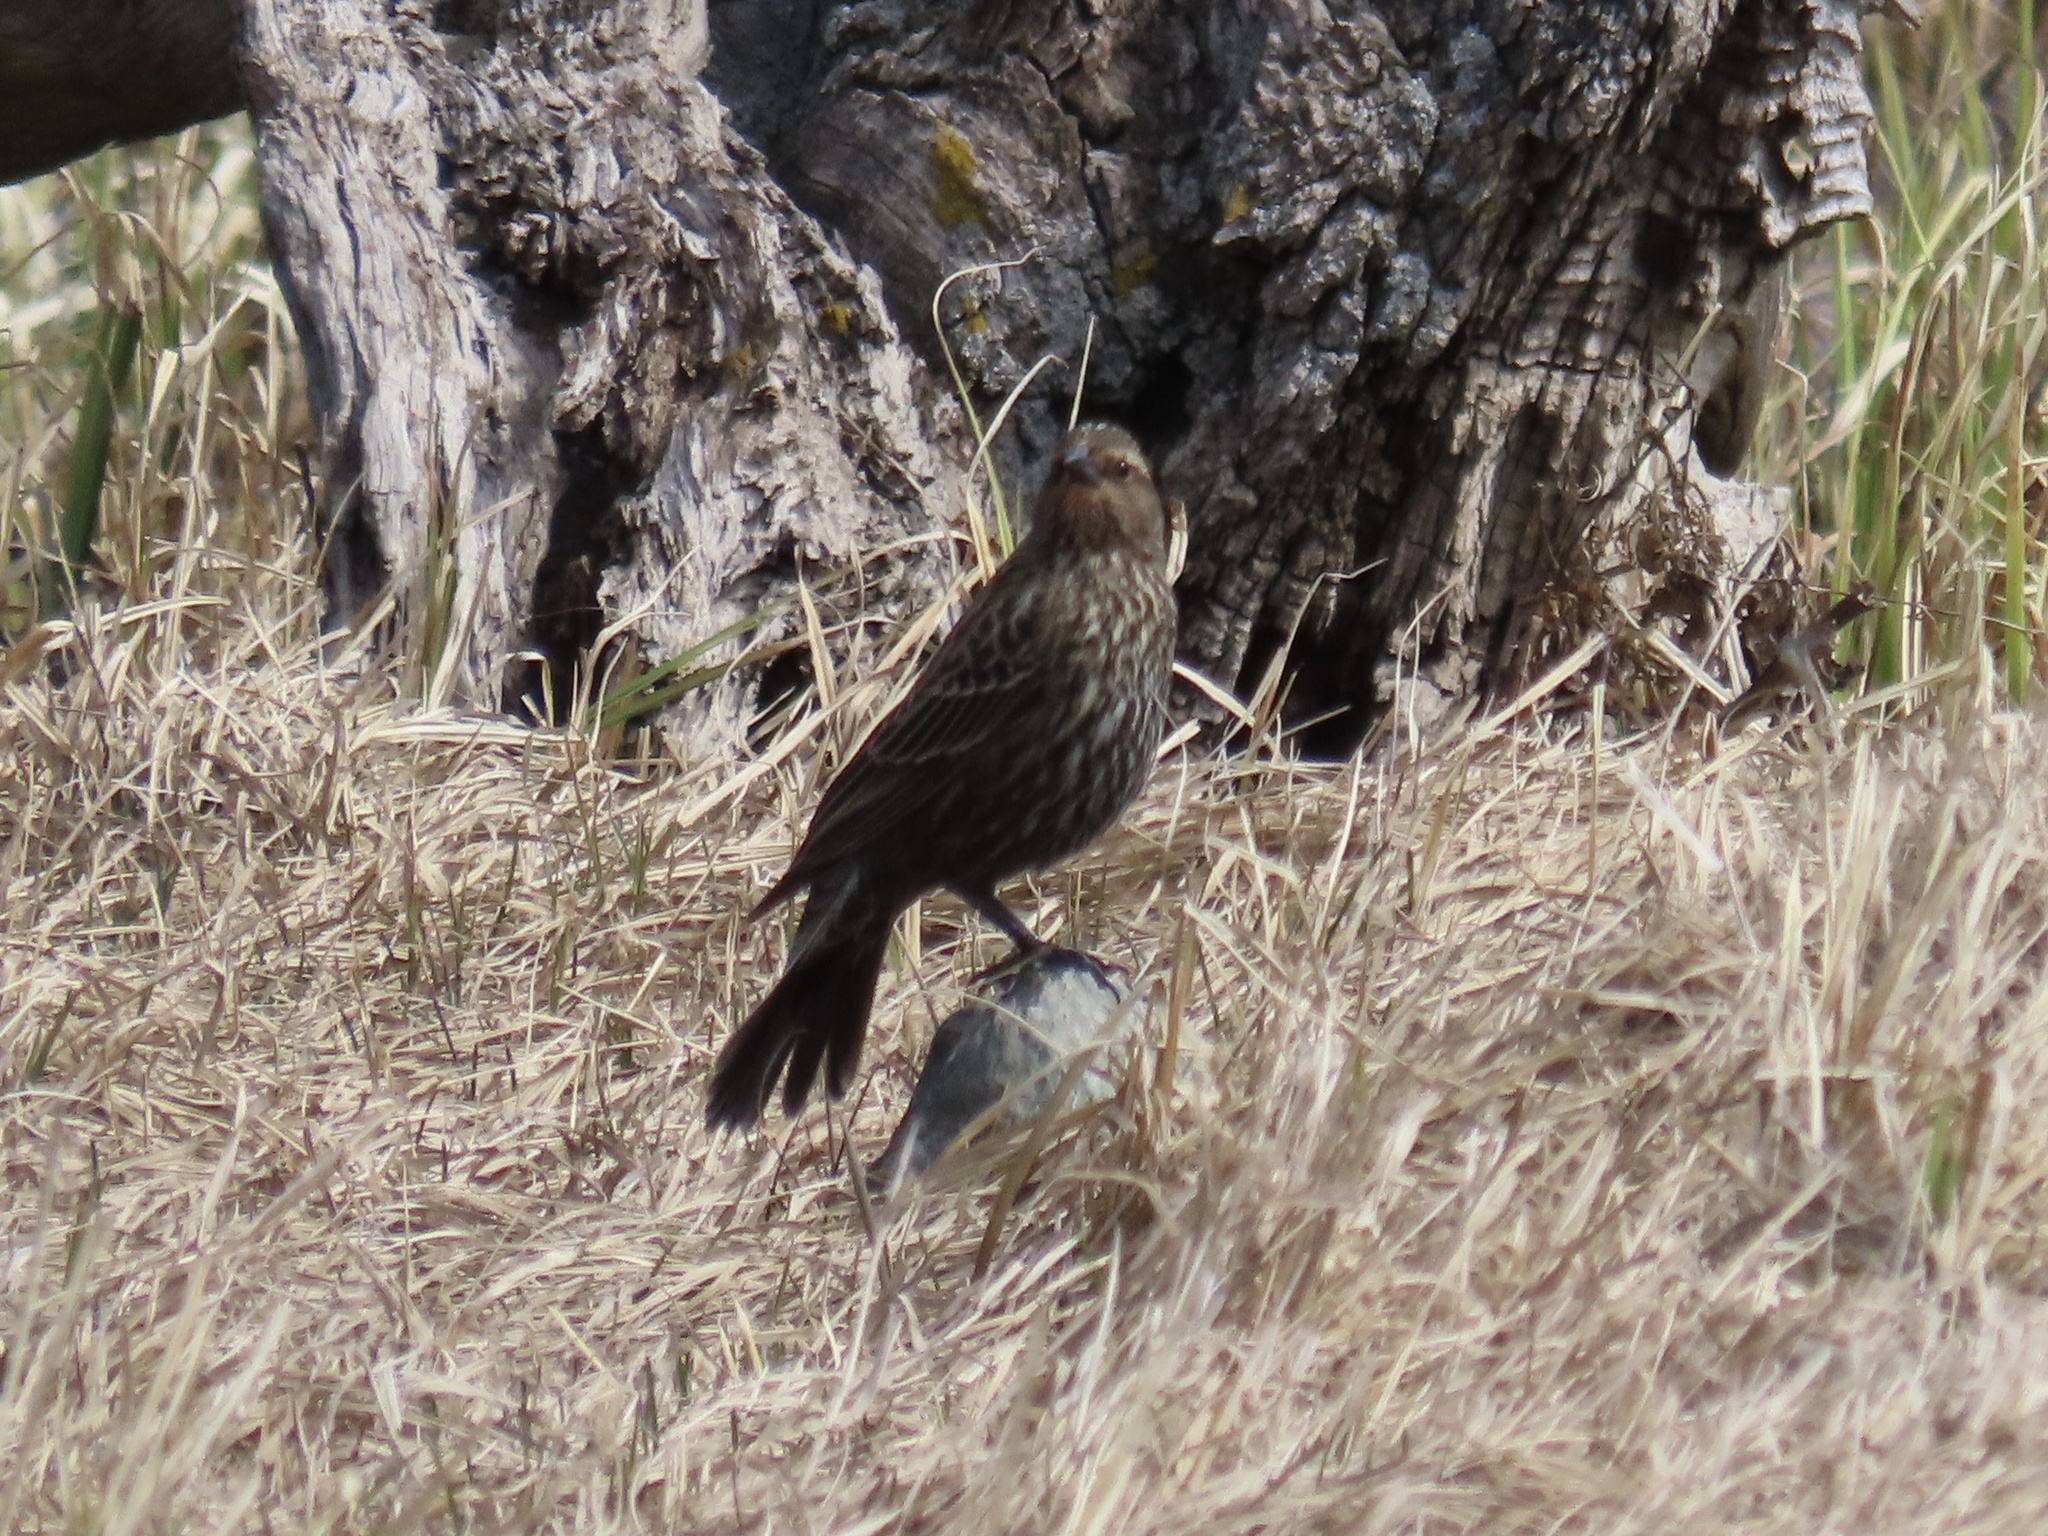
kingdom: Animalia
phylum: Chordata
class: Aves
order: Passeriformes
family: Icteridae
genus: Agelaius
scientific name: Agelaius phoeniceus
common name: Red-winged blackbird
